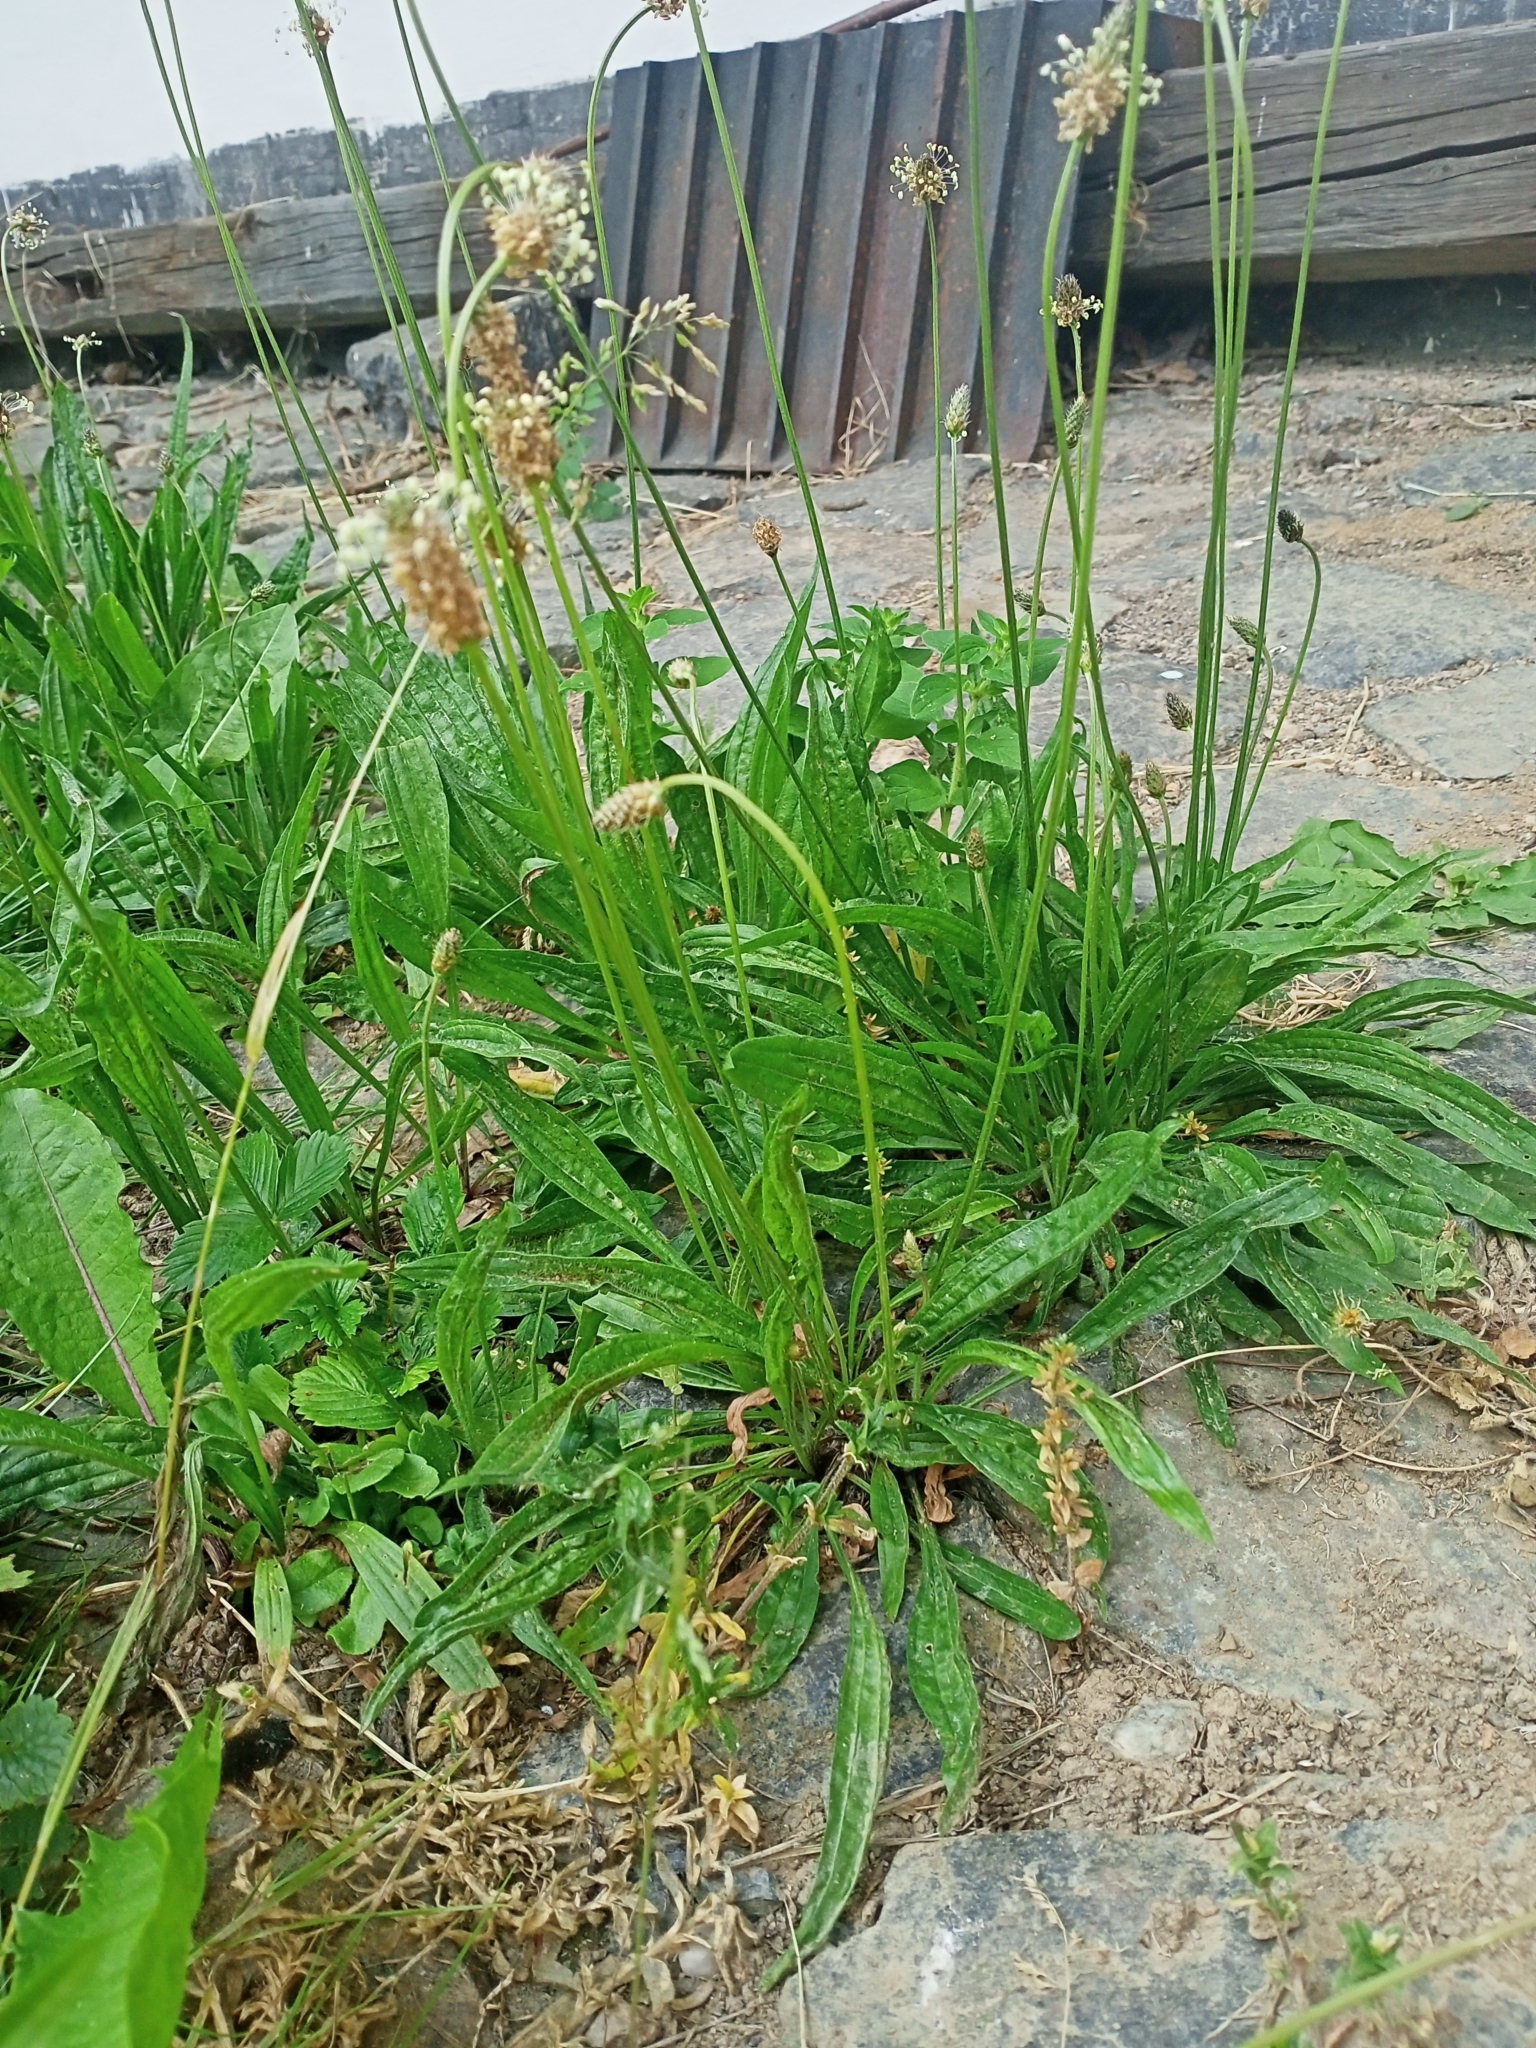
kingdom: Plantae
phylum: Tracheophyta
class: Magnoliopsida
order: Lamiales
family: Plantaginaceae
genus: Plantago
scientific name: Plantago lanceolata
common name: Ribwort plantain
